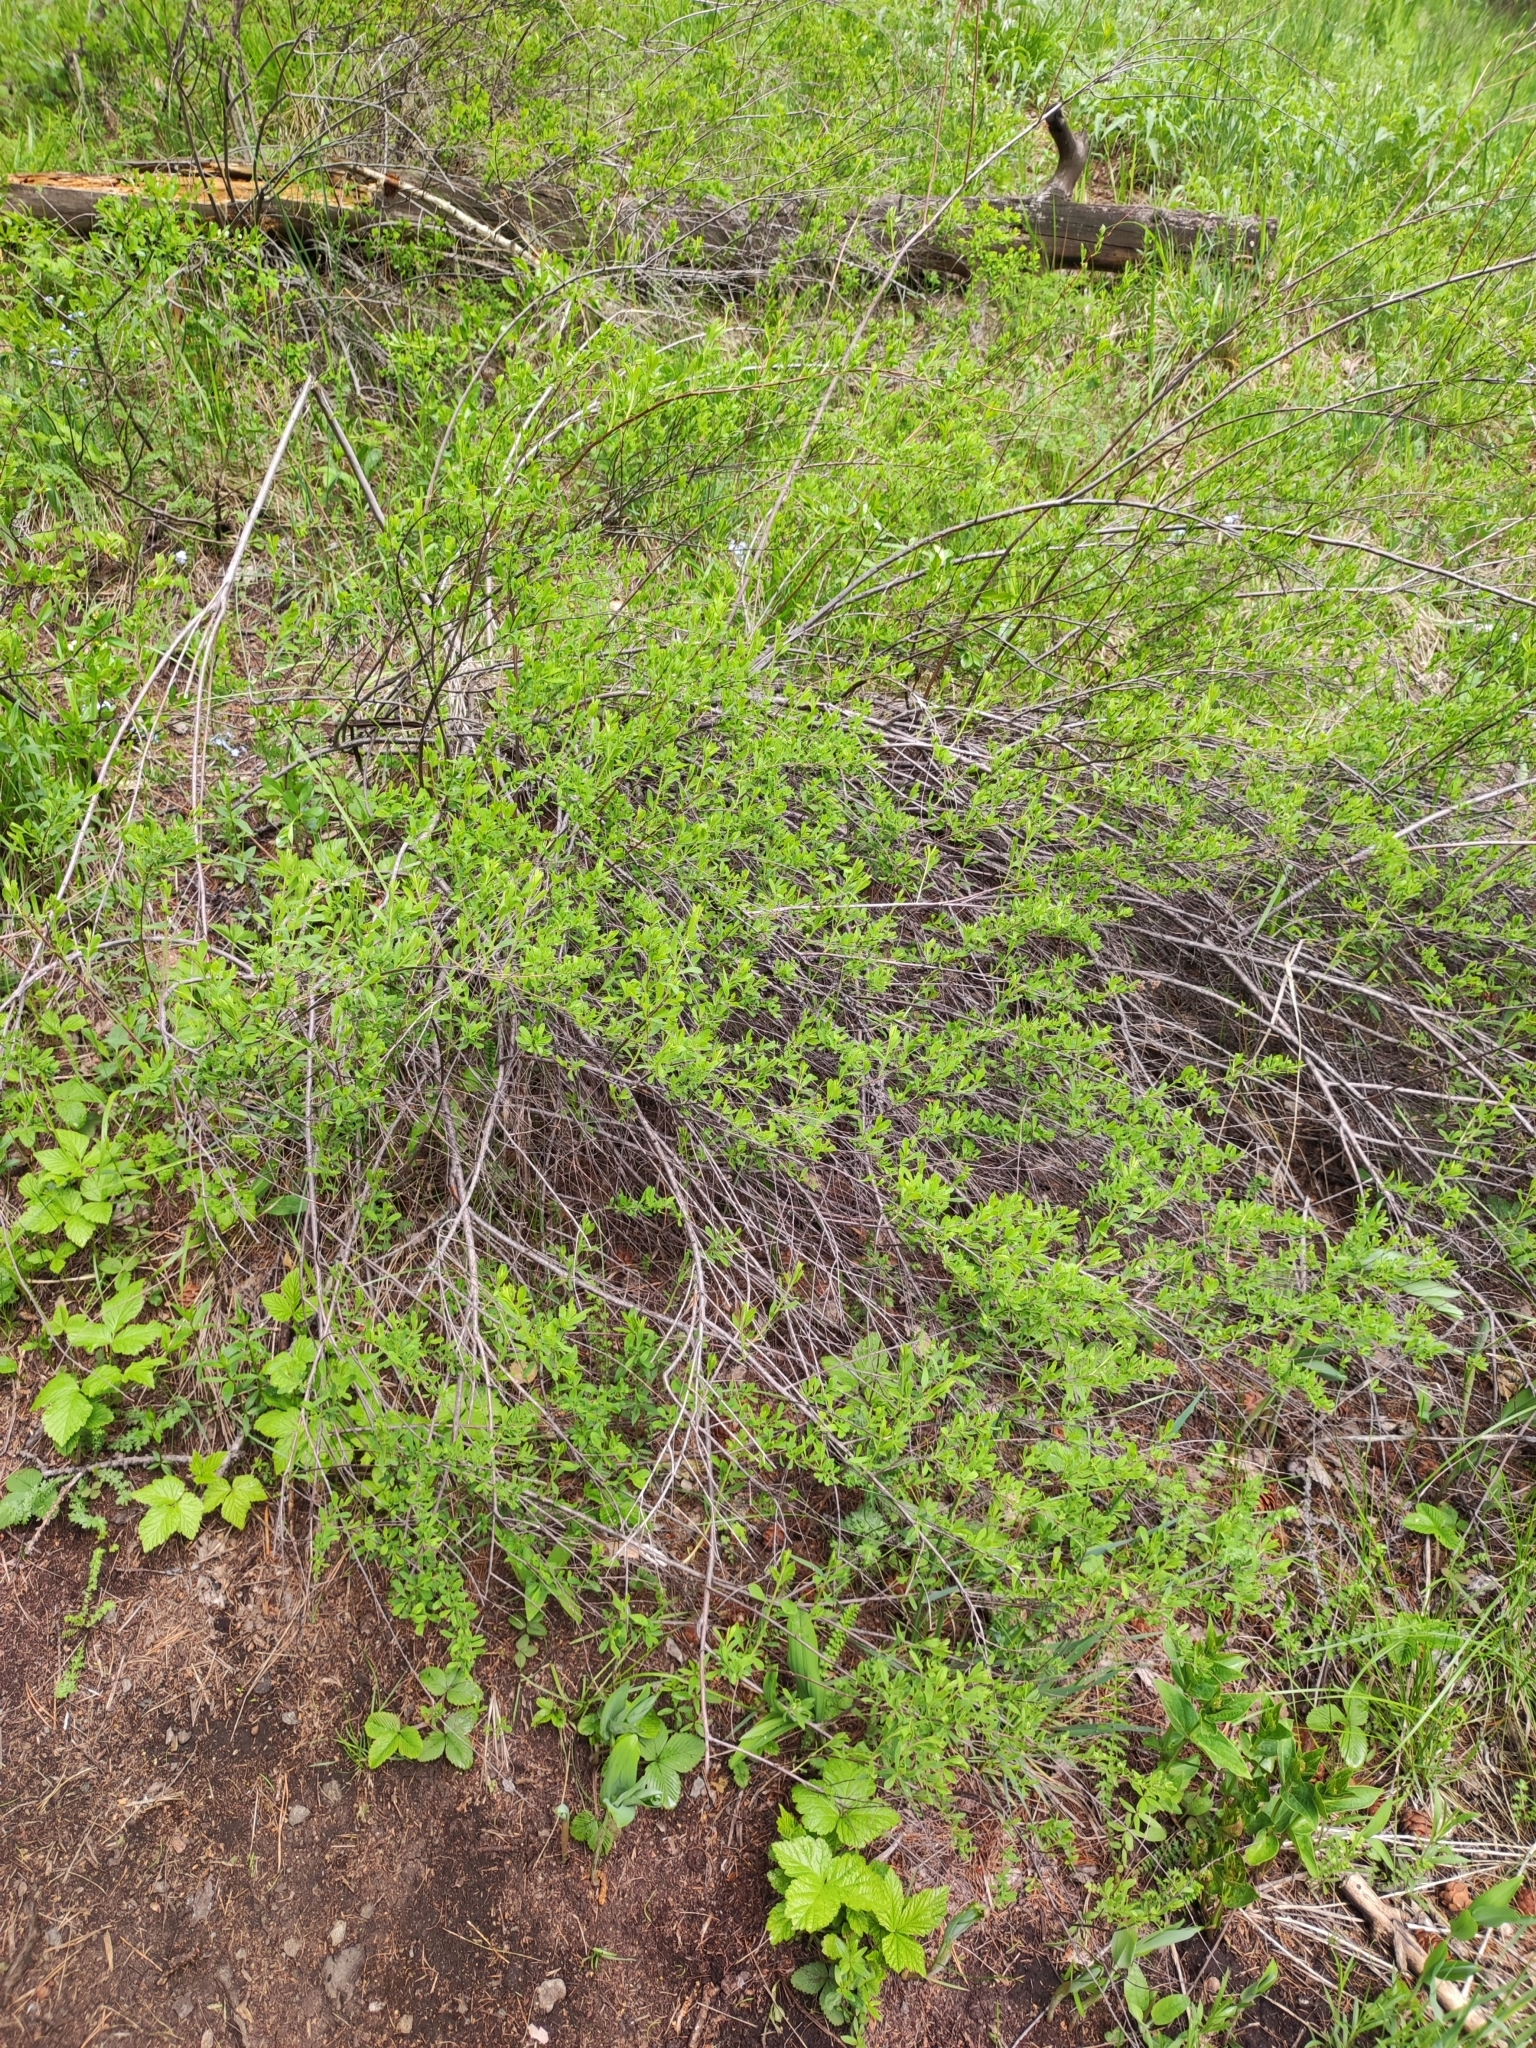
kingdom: Plantae
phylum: Tracheophyta
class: Magnoliopsida
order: Rosales
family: Rosaceae
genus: Spiraea
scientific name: Spiraea crenata
